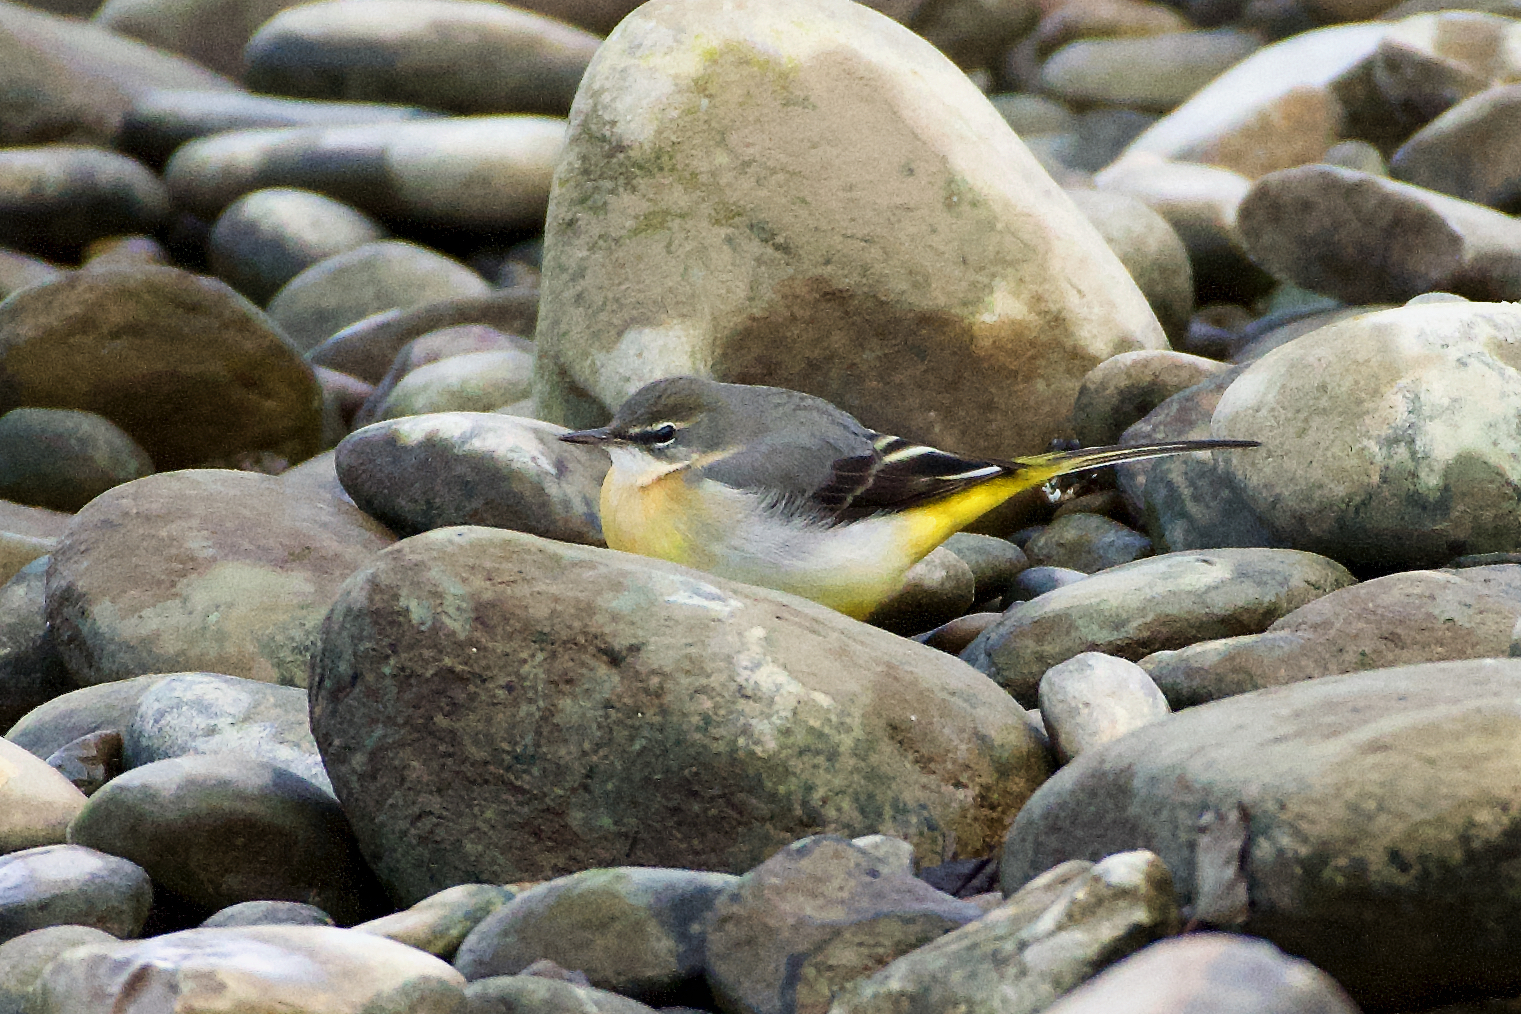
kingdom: Animalia
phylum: Chordata
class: Aves
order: Passeriformes
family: Motacillidae
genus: Motacilla
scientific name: Motacilla cinerea
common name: Grey wagtail
